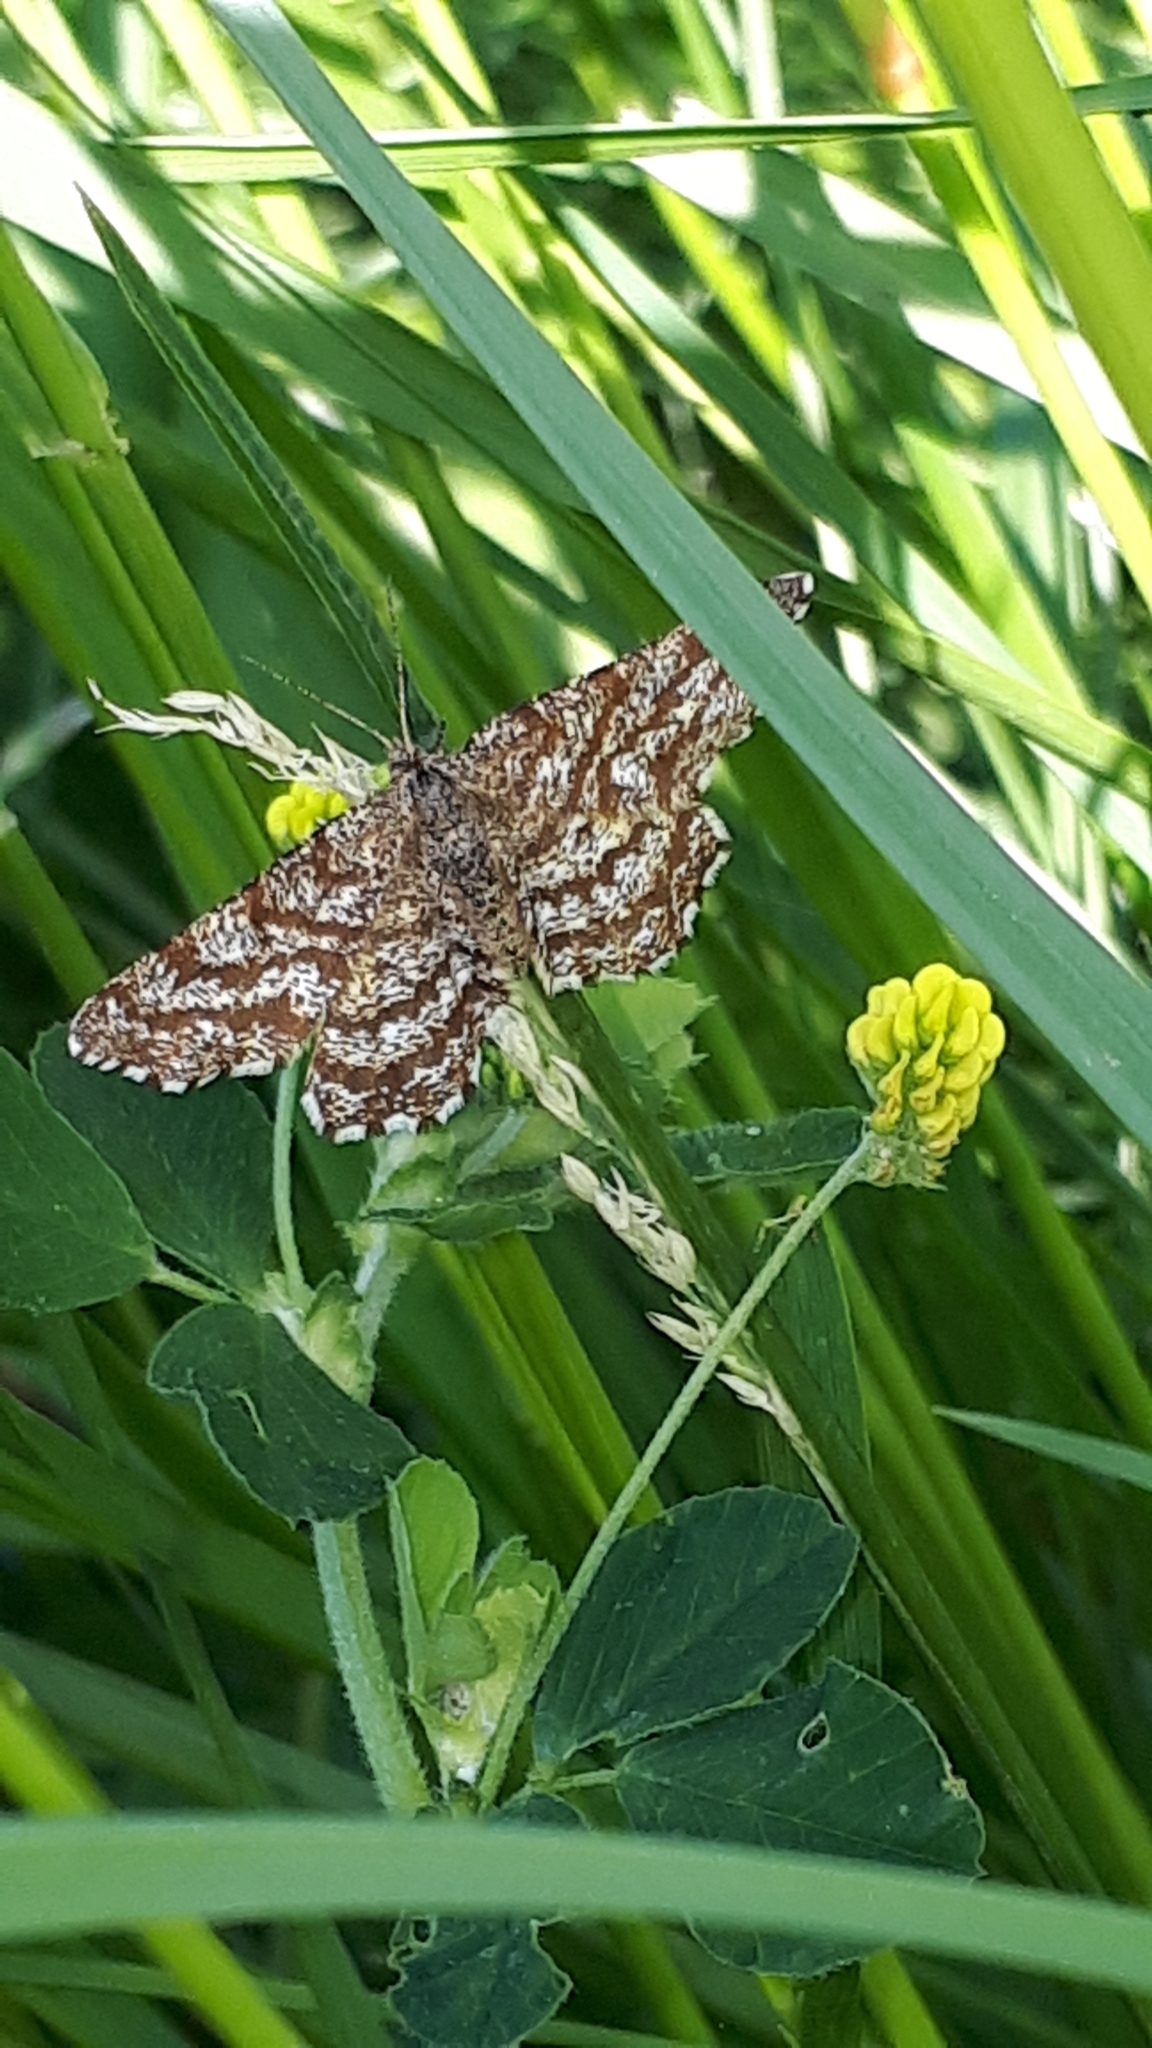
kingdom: Animalia
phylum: Arthropoda
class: Insecta
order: Lepidoptera
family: Geometridae
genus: Ematurga
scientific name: Ematurga atomaria
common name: Common heath
